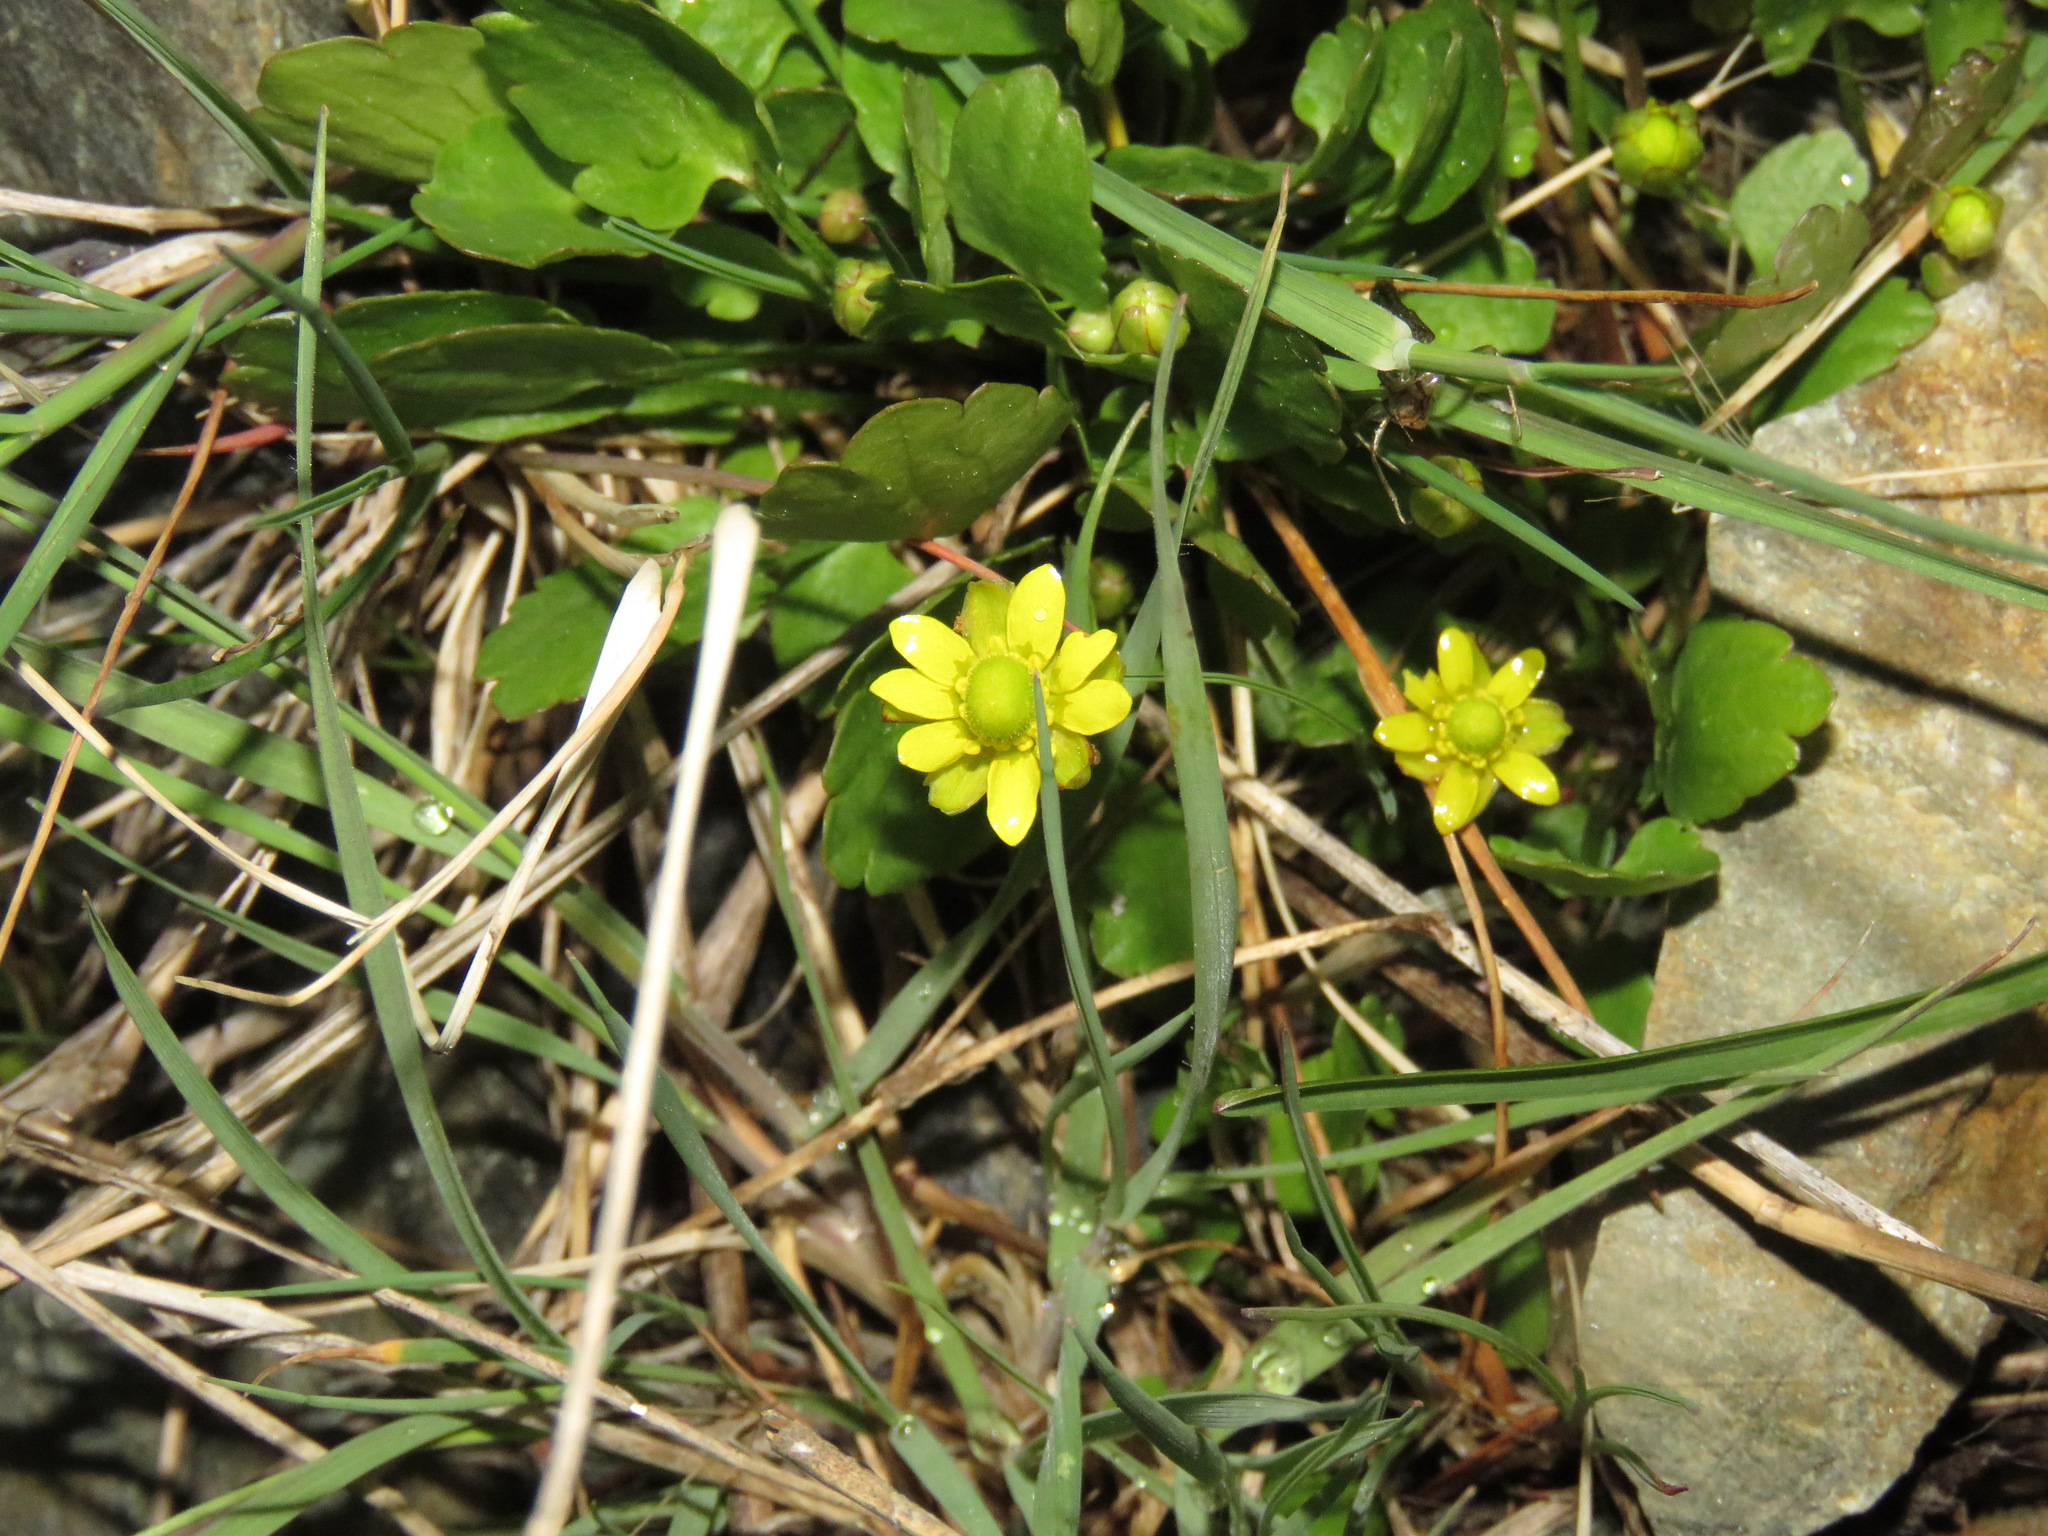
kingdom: Plantae
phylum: Tracheophyta
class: Magnoliopsida
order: Ranunculales
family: Ranunculaceae
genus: Halerpestes
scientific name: Halerpestes cymbalaria
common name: Seaside crowfoot
